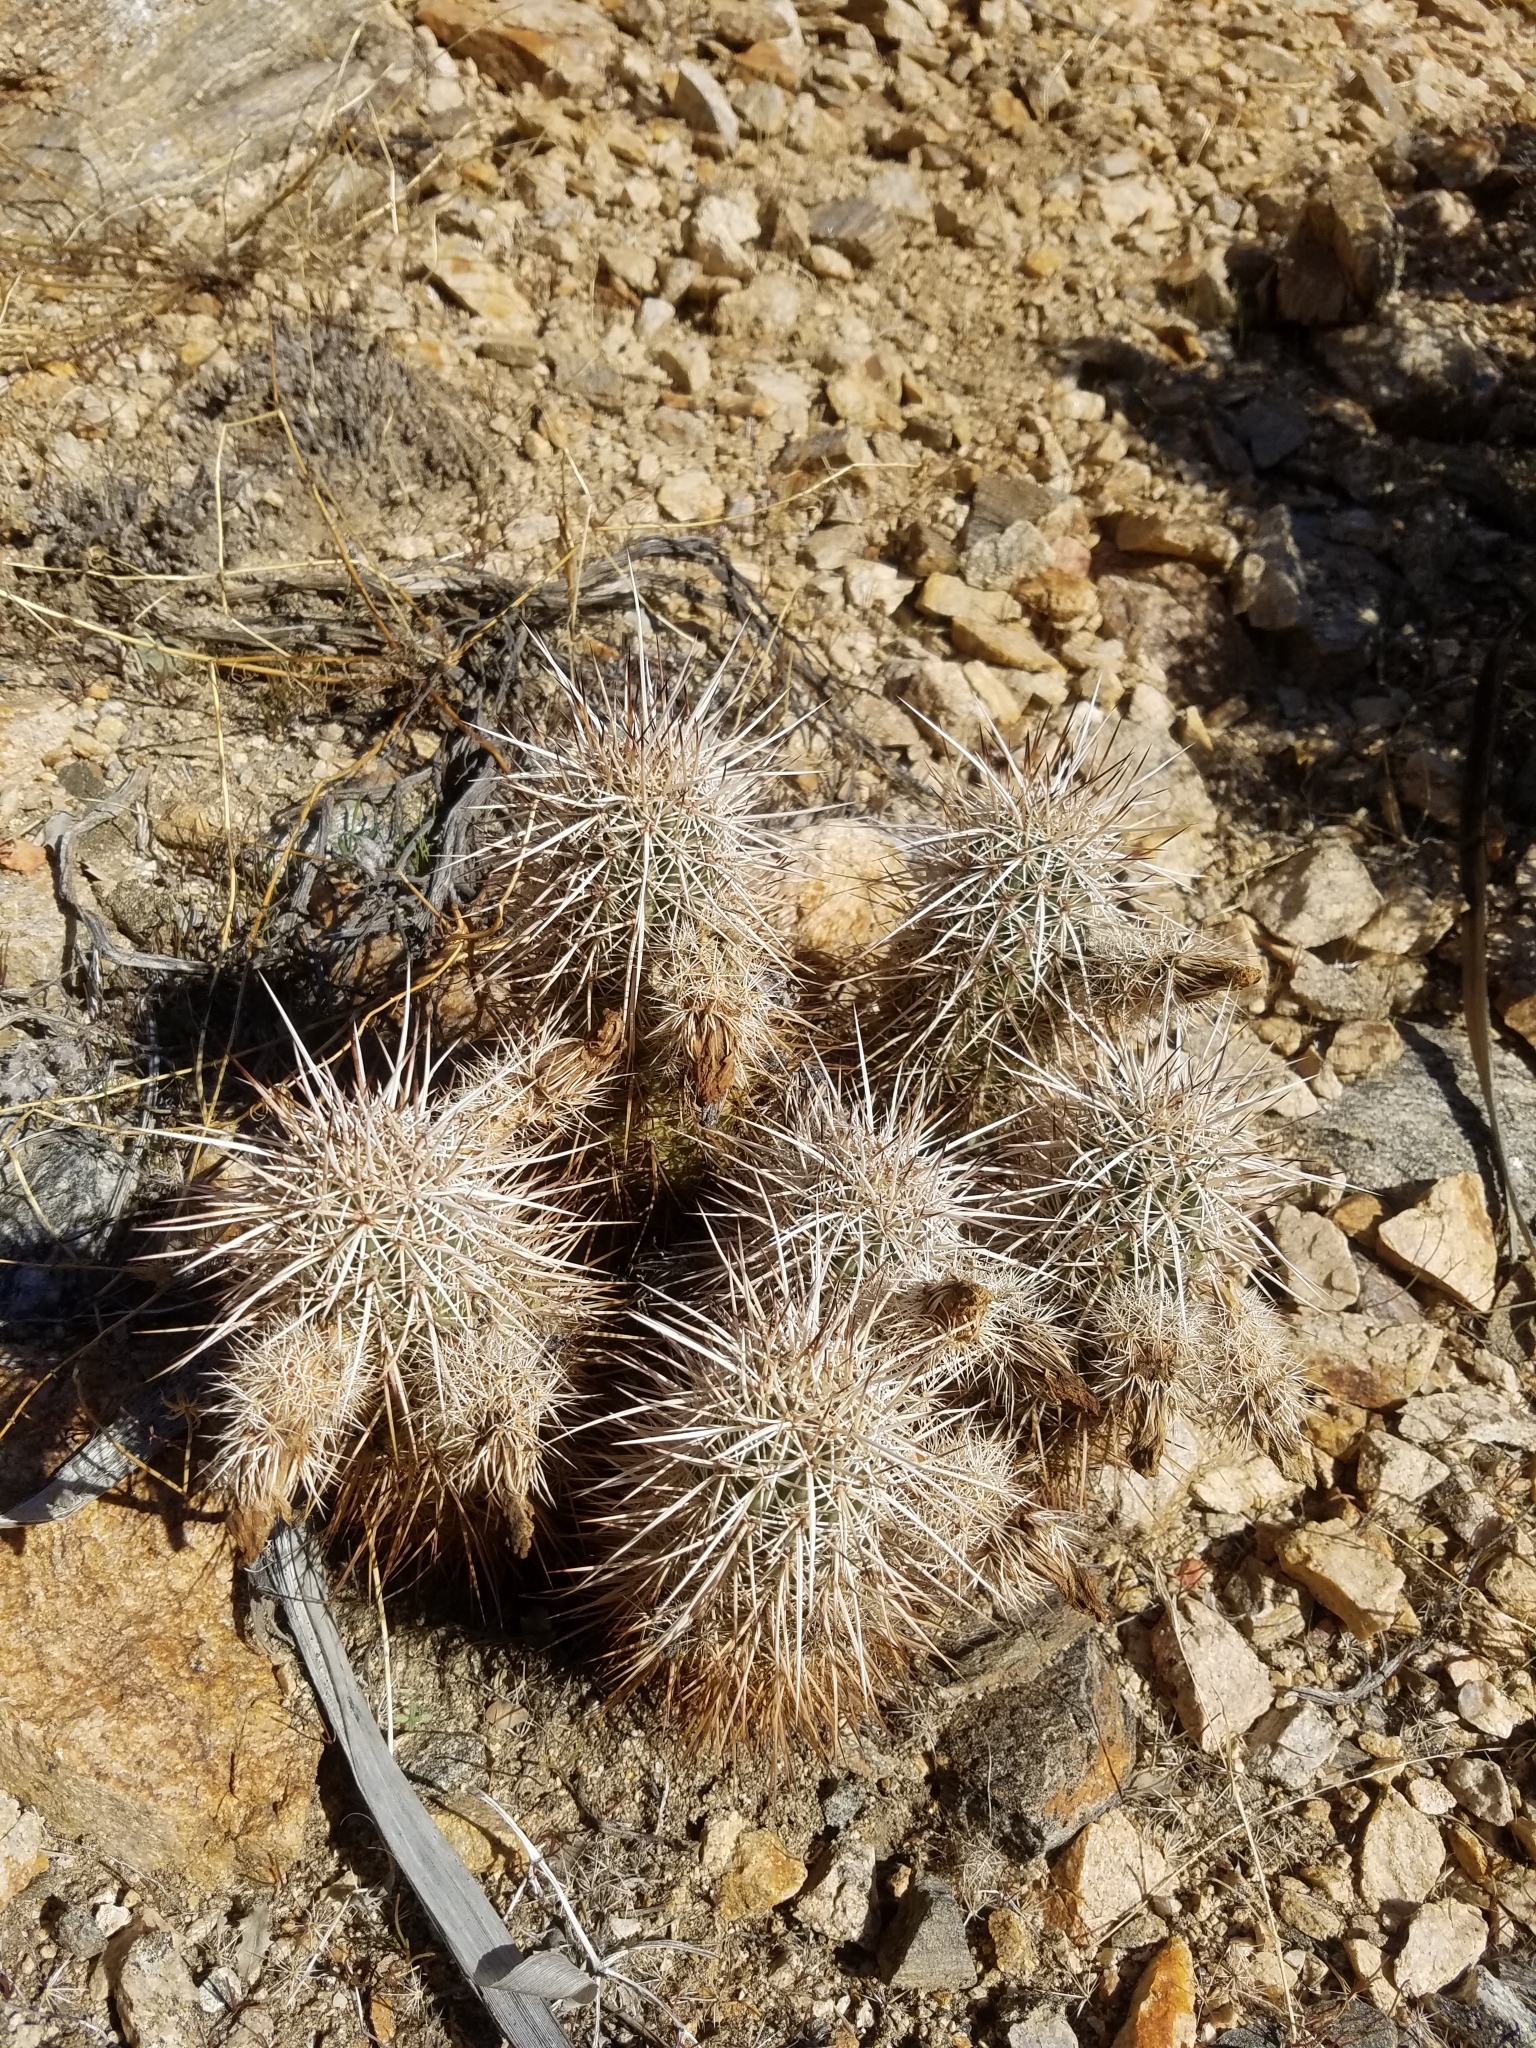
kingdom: Plantae
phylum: Tracheophyta
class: Magnoliopsida
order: Caryophyllales
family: Cactaceae
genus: Echinocereus
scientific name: Echinocereus engelmannii
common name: Engelmann's hedgehog cactus
